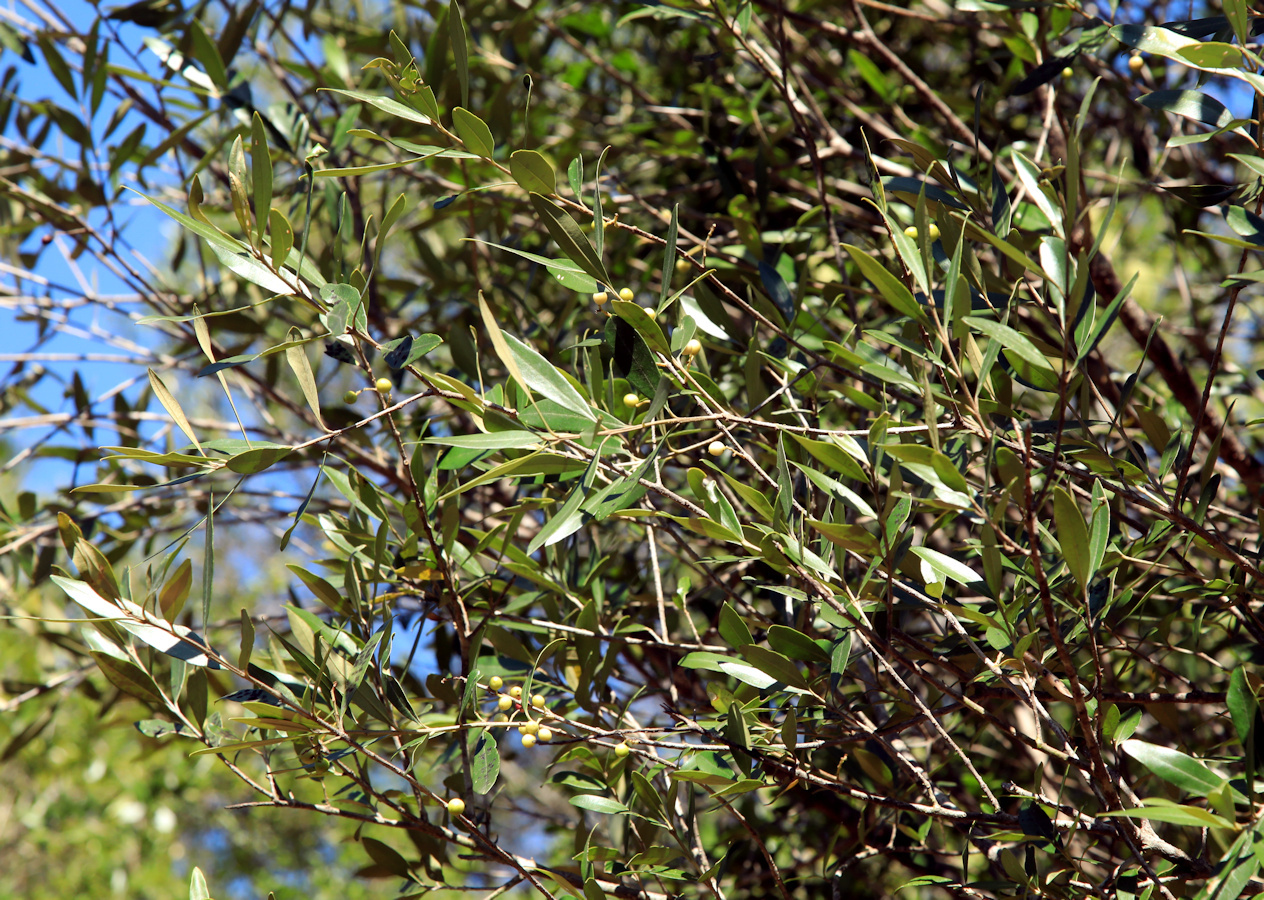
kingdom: Plantae
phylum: Tracheophyta
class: Magnoliopsida
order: Lamiales
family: Oleaceae
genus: Olea
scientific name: Olea europaea
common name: Olive
